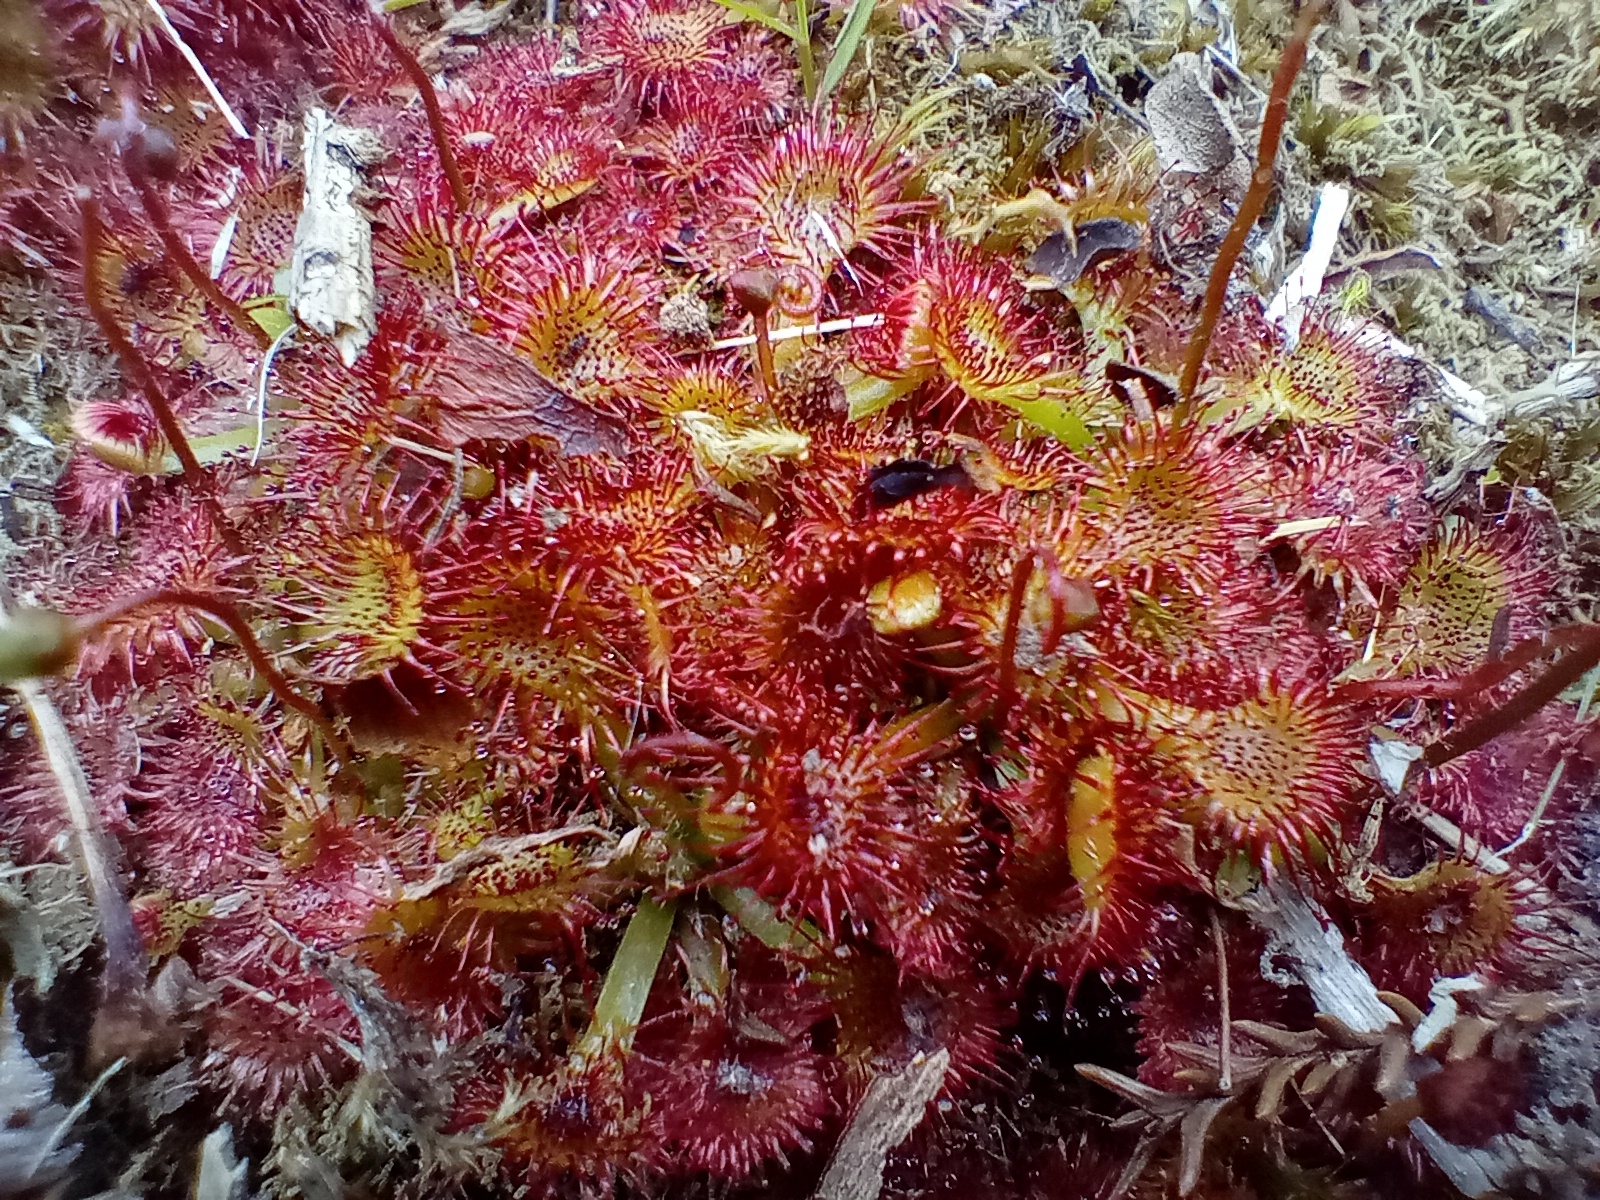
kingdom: Plantae
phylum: Tracheophyta
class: Magnoliopsida
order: Caryophyllales
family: Droseraceae
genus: Drosera
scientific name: Drosera spatulata
